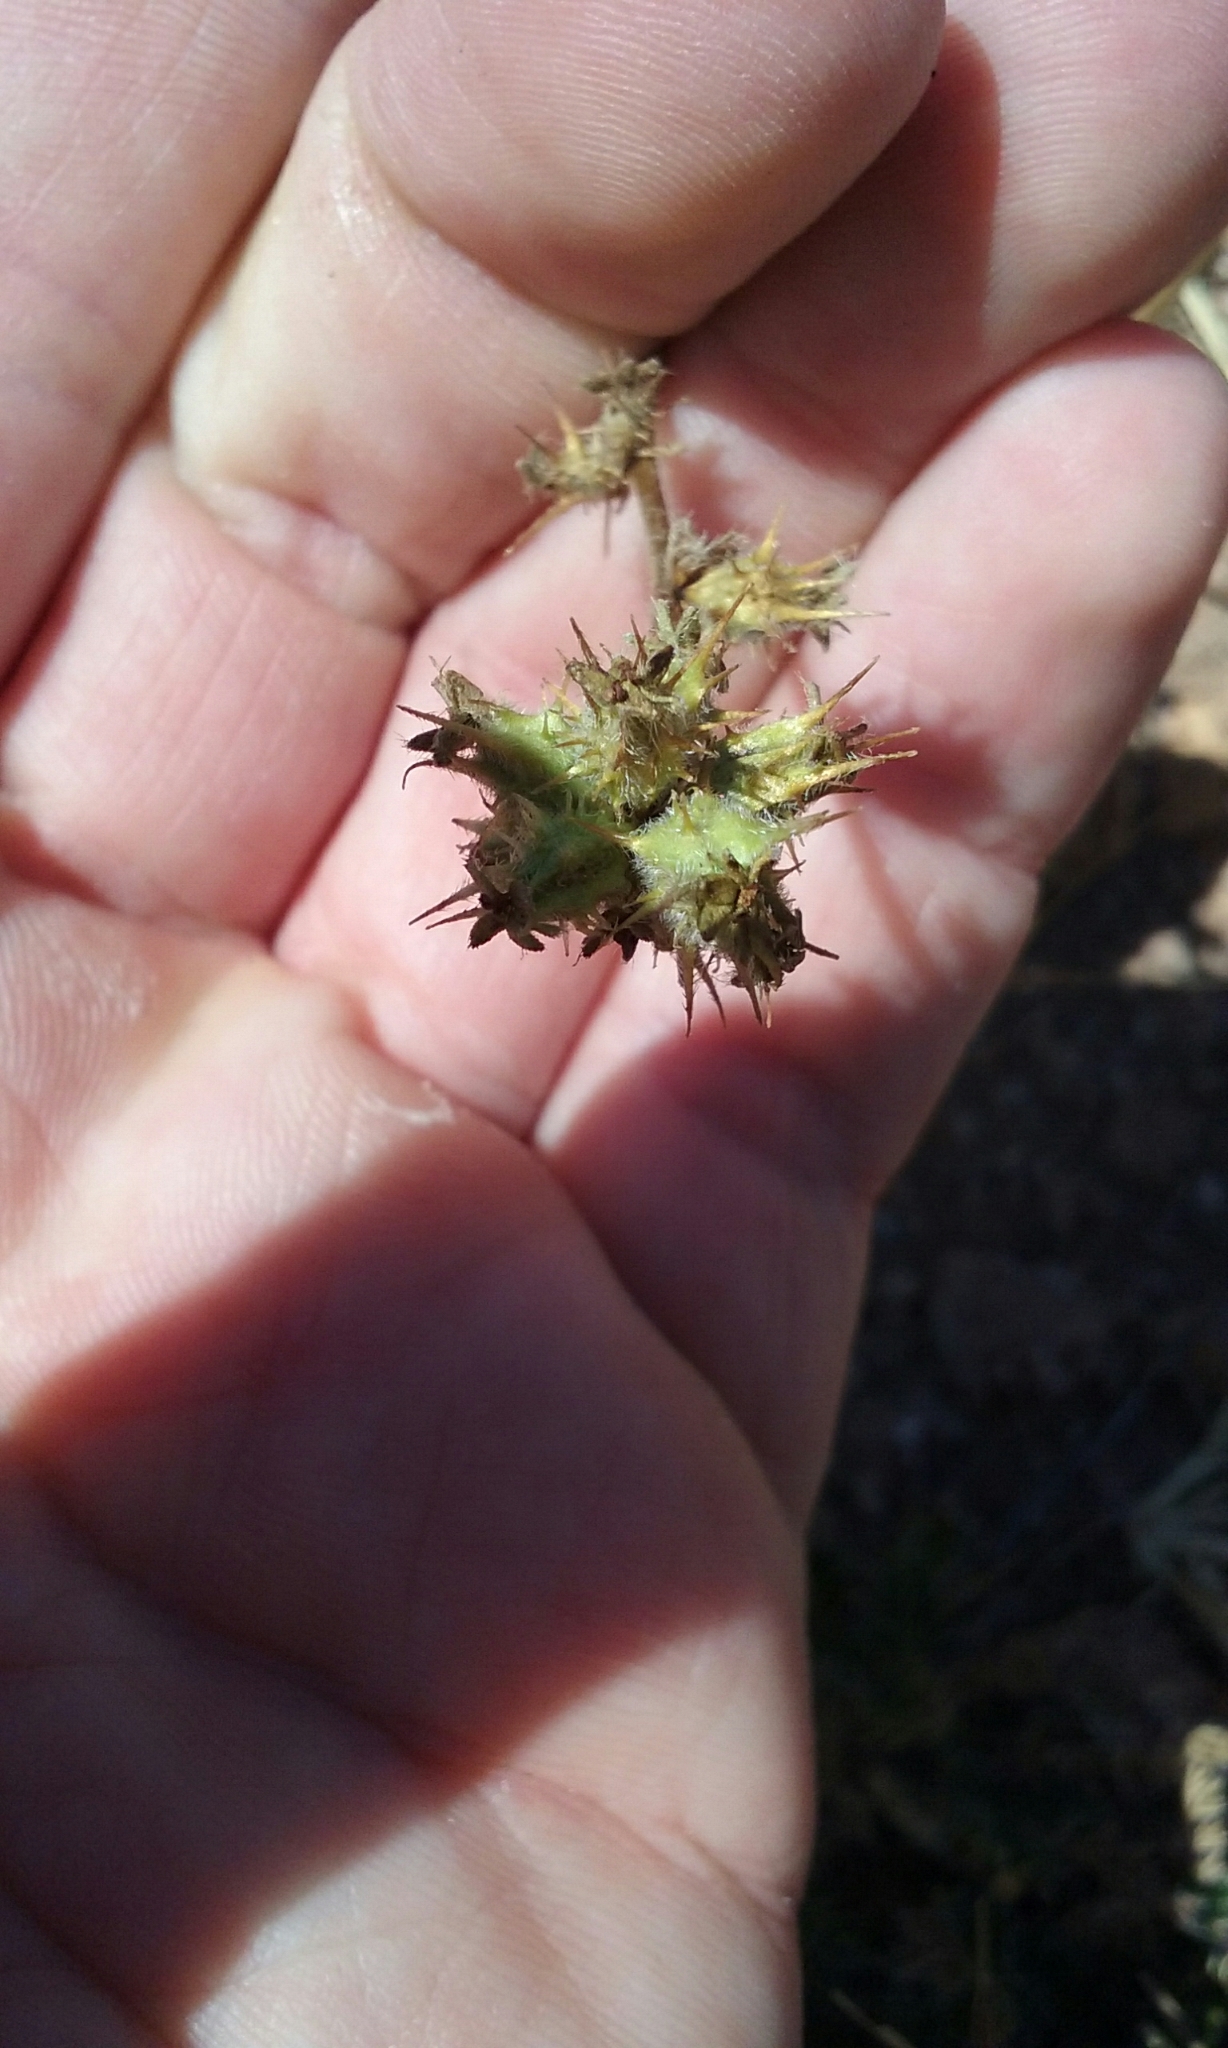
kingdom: Plantae
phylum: Tracheophyta
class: Magnoliopsida
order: Rosales
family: Rosaceae
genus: Acaena
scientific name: Acaena pinnatifida
